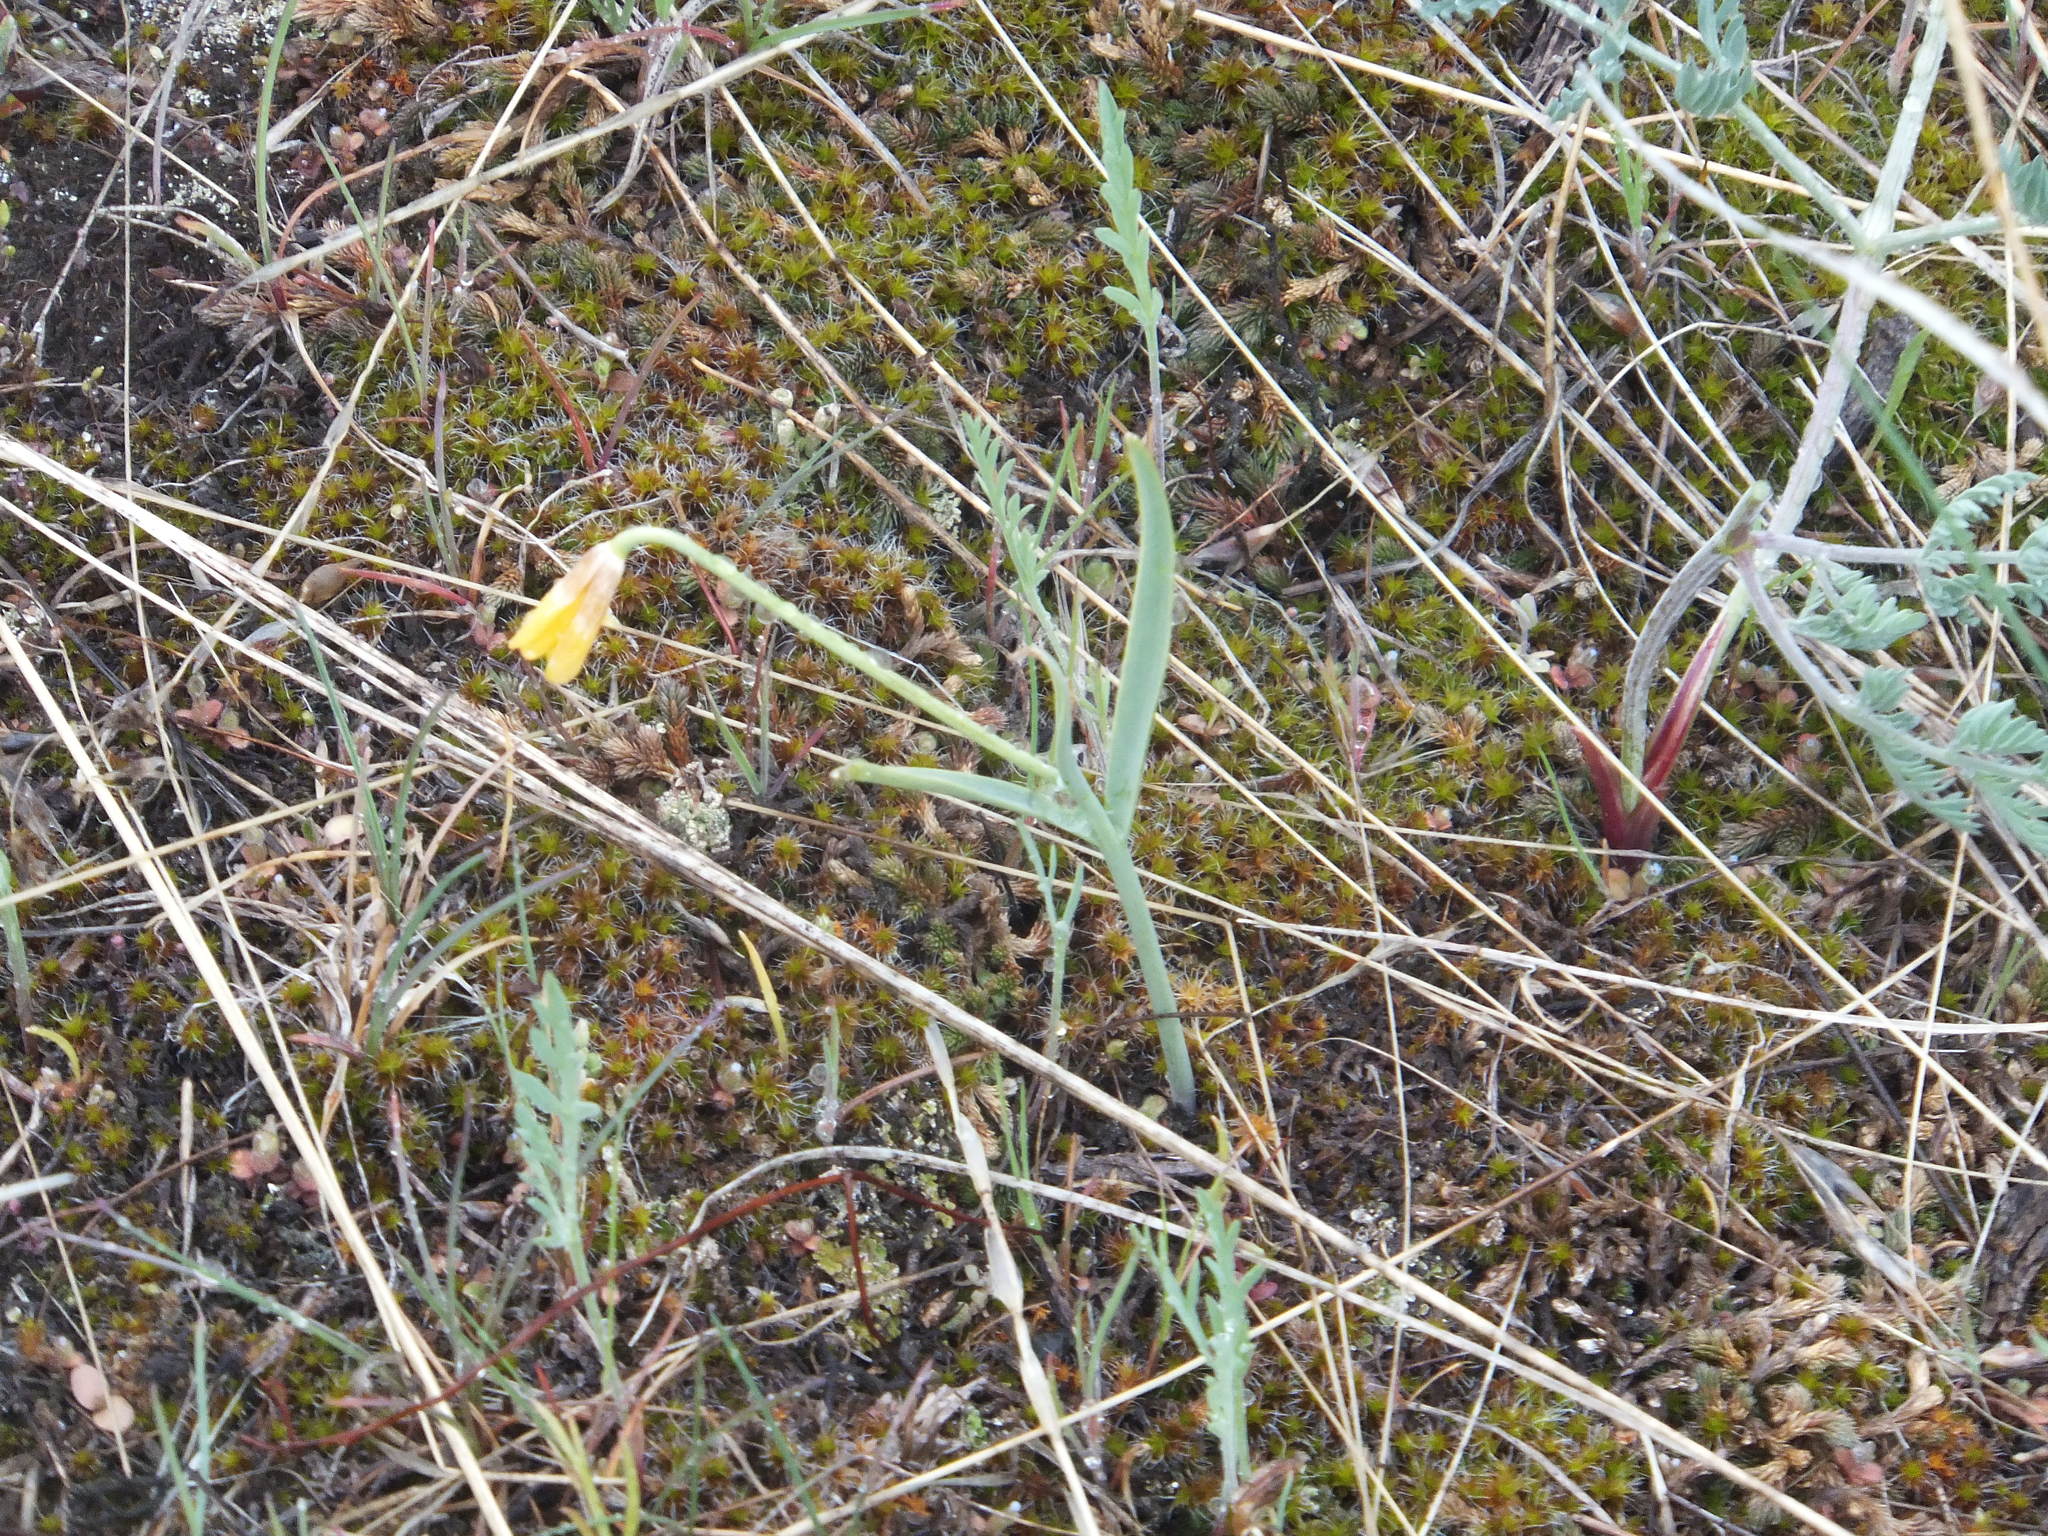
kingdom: Plantae
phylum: Tracheophyta
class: Liliopsida
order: Liliales
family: Liliaceae
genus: Fritillaria
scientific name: Fritillaria pudica
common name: Yellow fritillary
